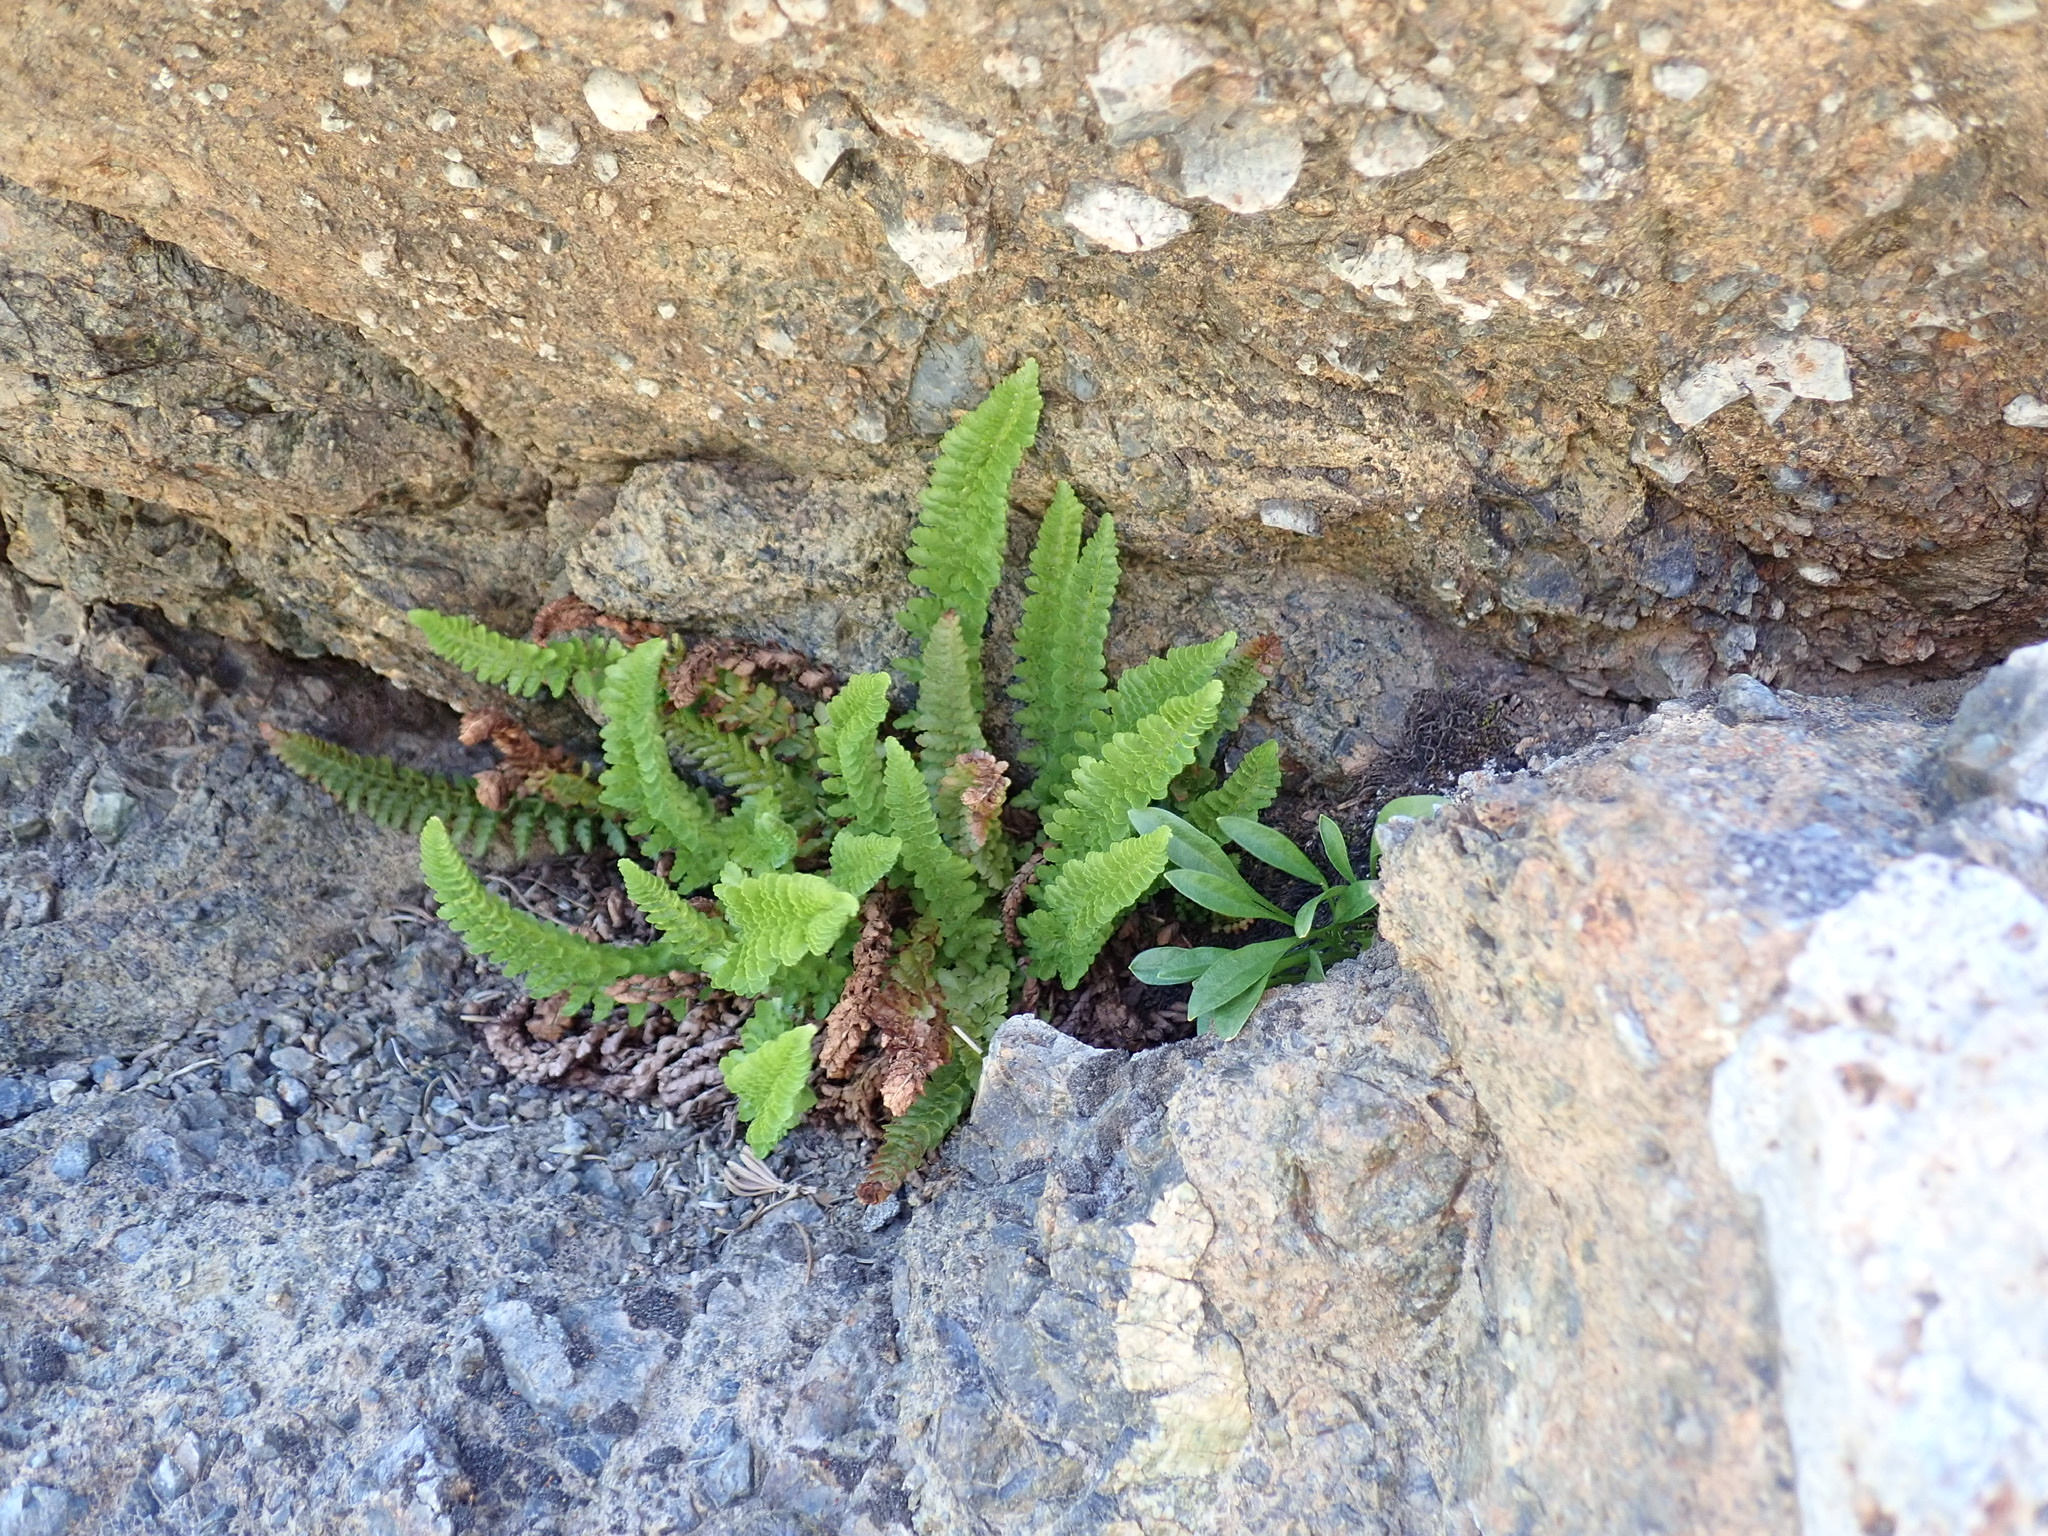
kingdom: Plantae
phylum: Tracheophyta
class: Polypodiopsida
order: Polypodiales
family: Dryopteridaceae
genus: Polystichum
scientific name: Polystichum lemmonii
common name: Lemmon's holly fern
